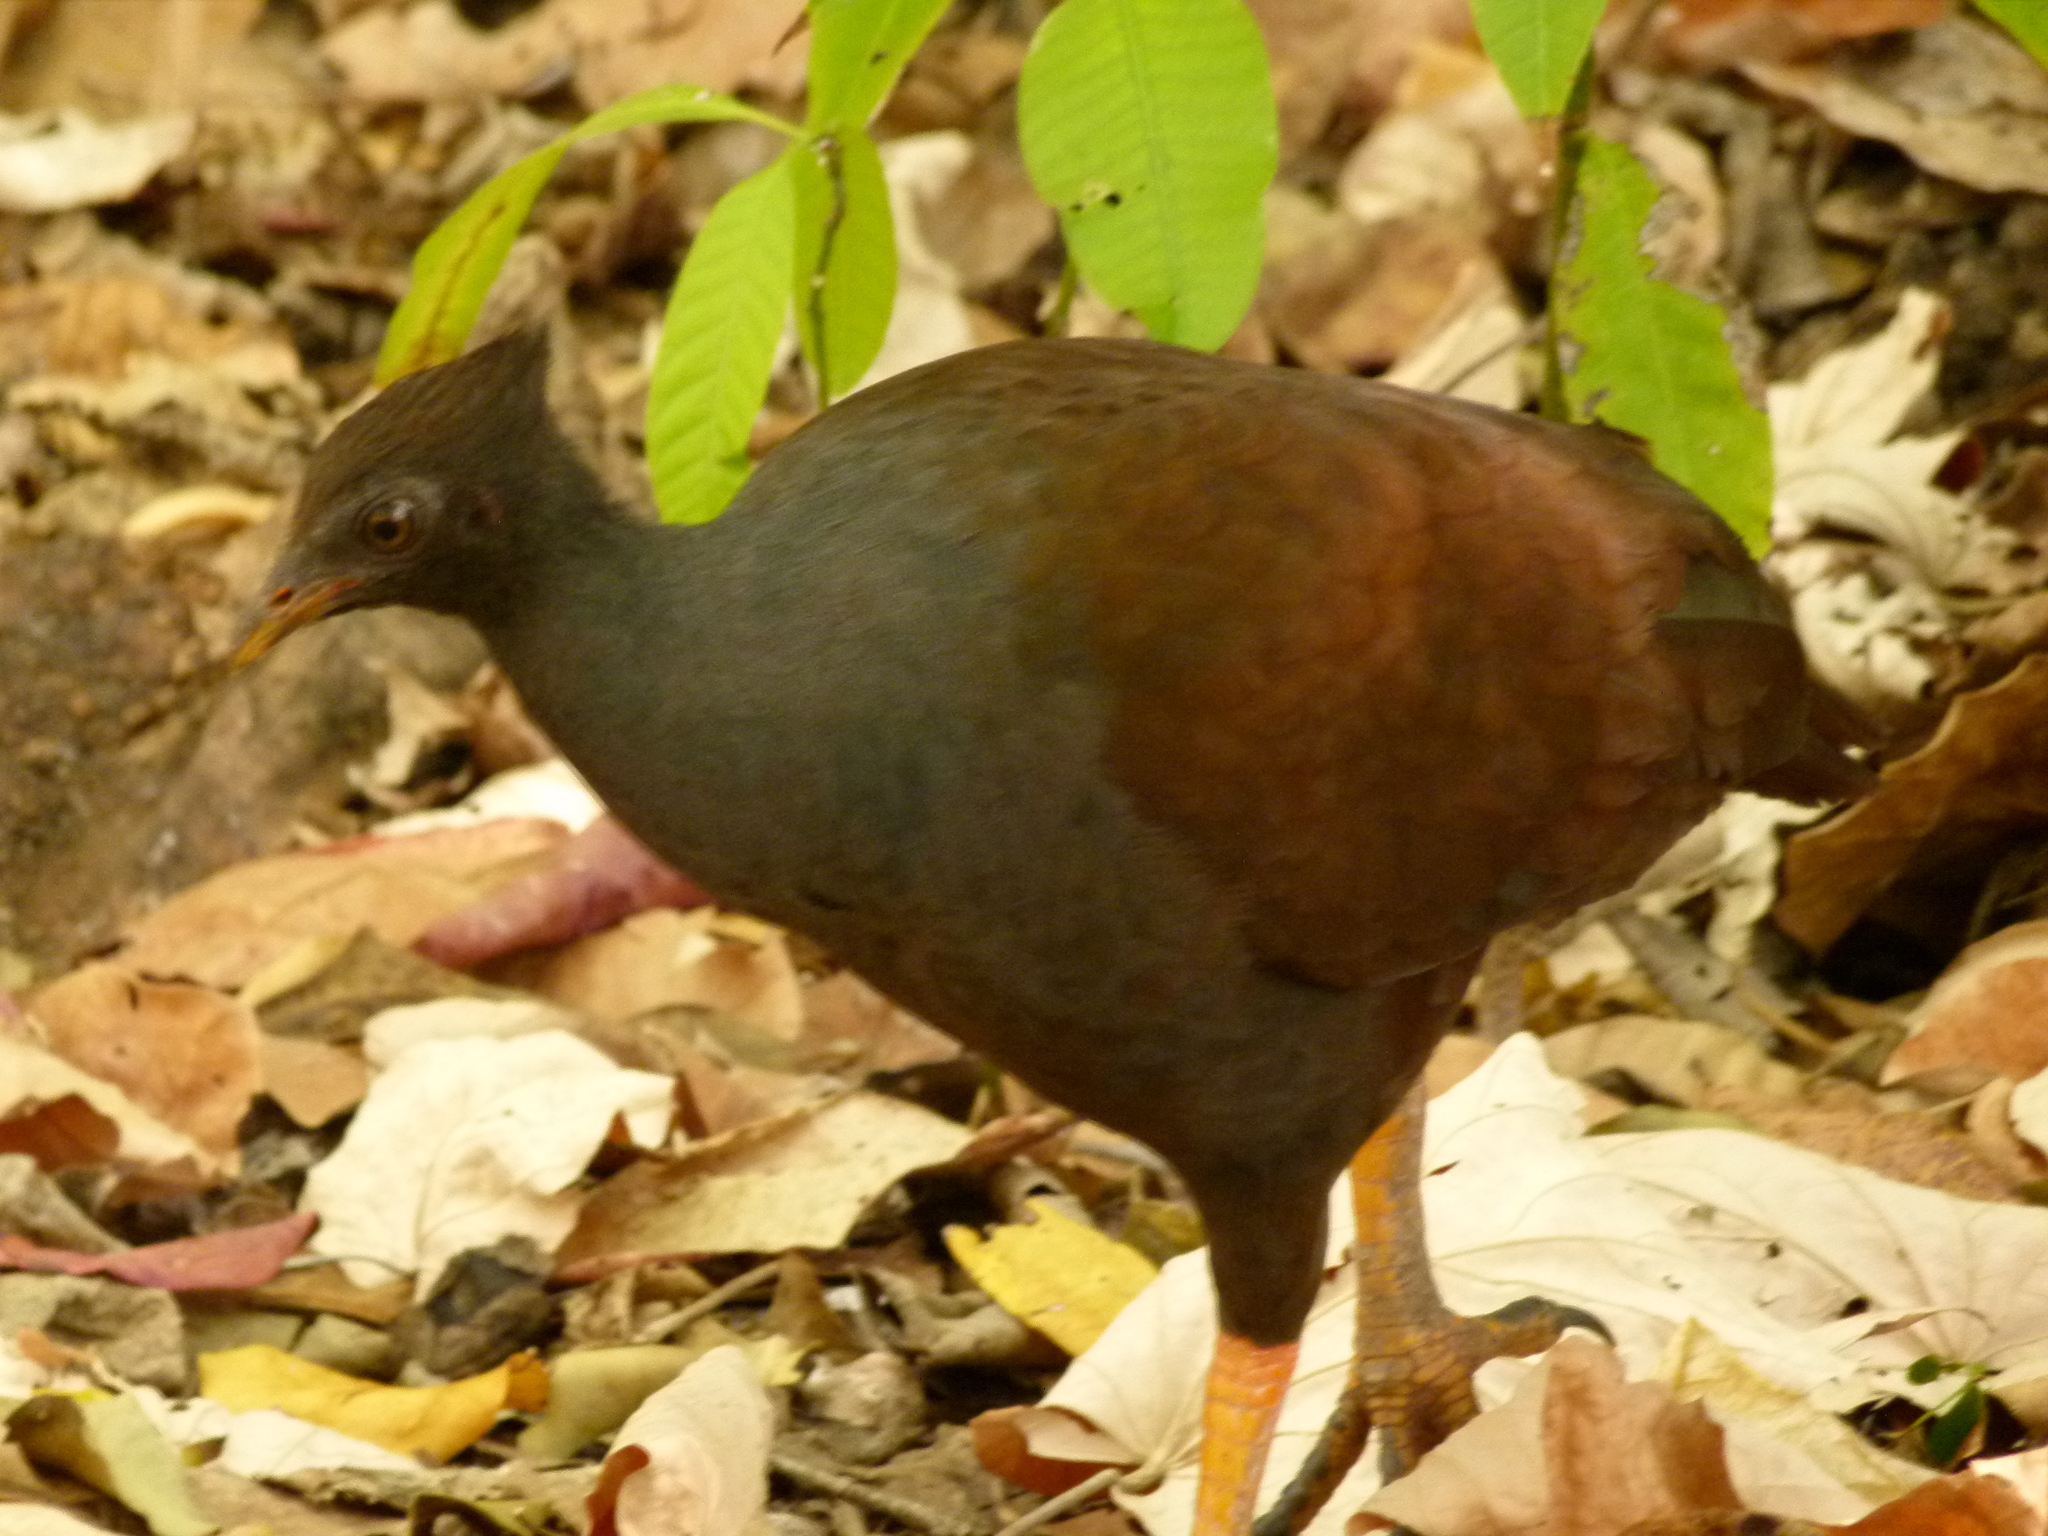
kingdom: Animalia
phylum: Chordata
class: Aves
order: Galliformes
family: Megapodiidae
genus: Megapodius
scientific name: Megapodius reinwardt
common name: Orange-footed scrubfowl
